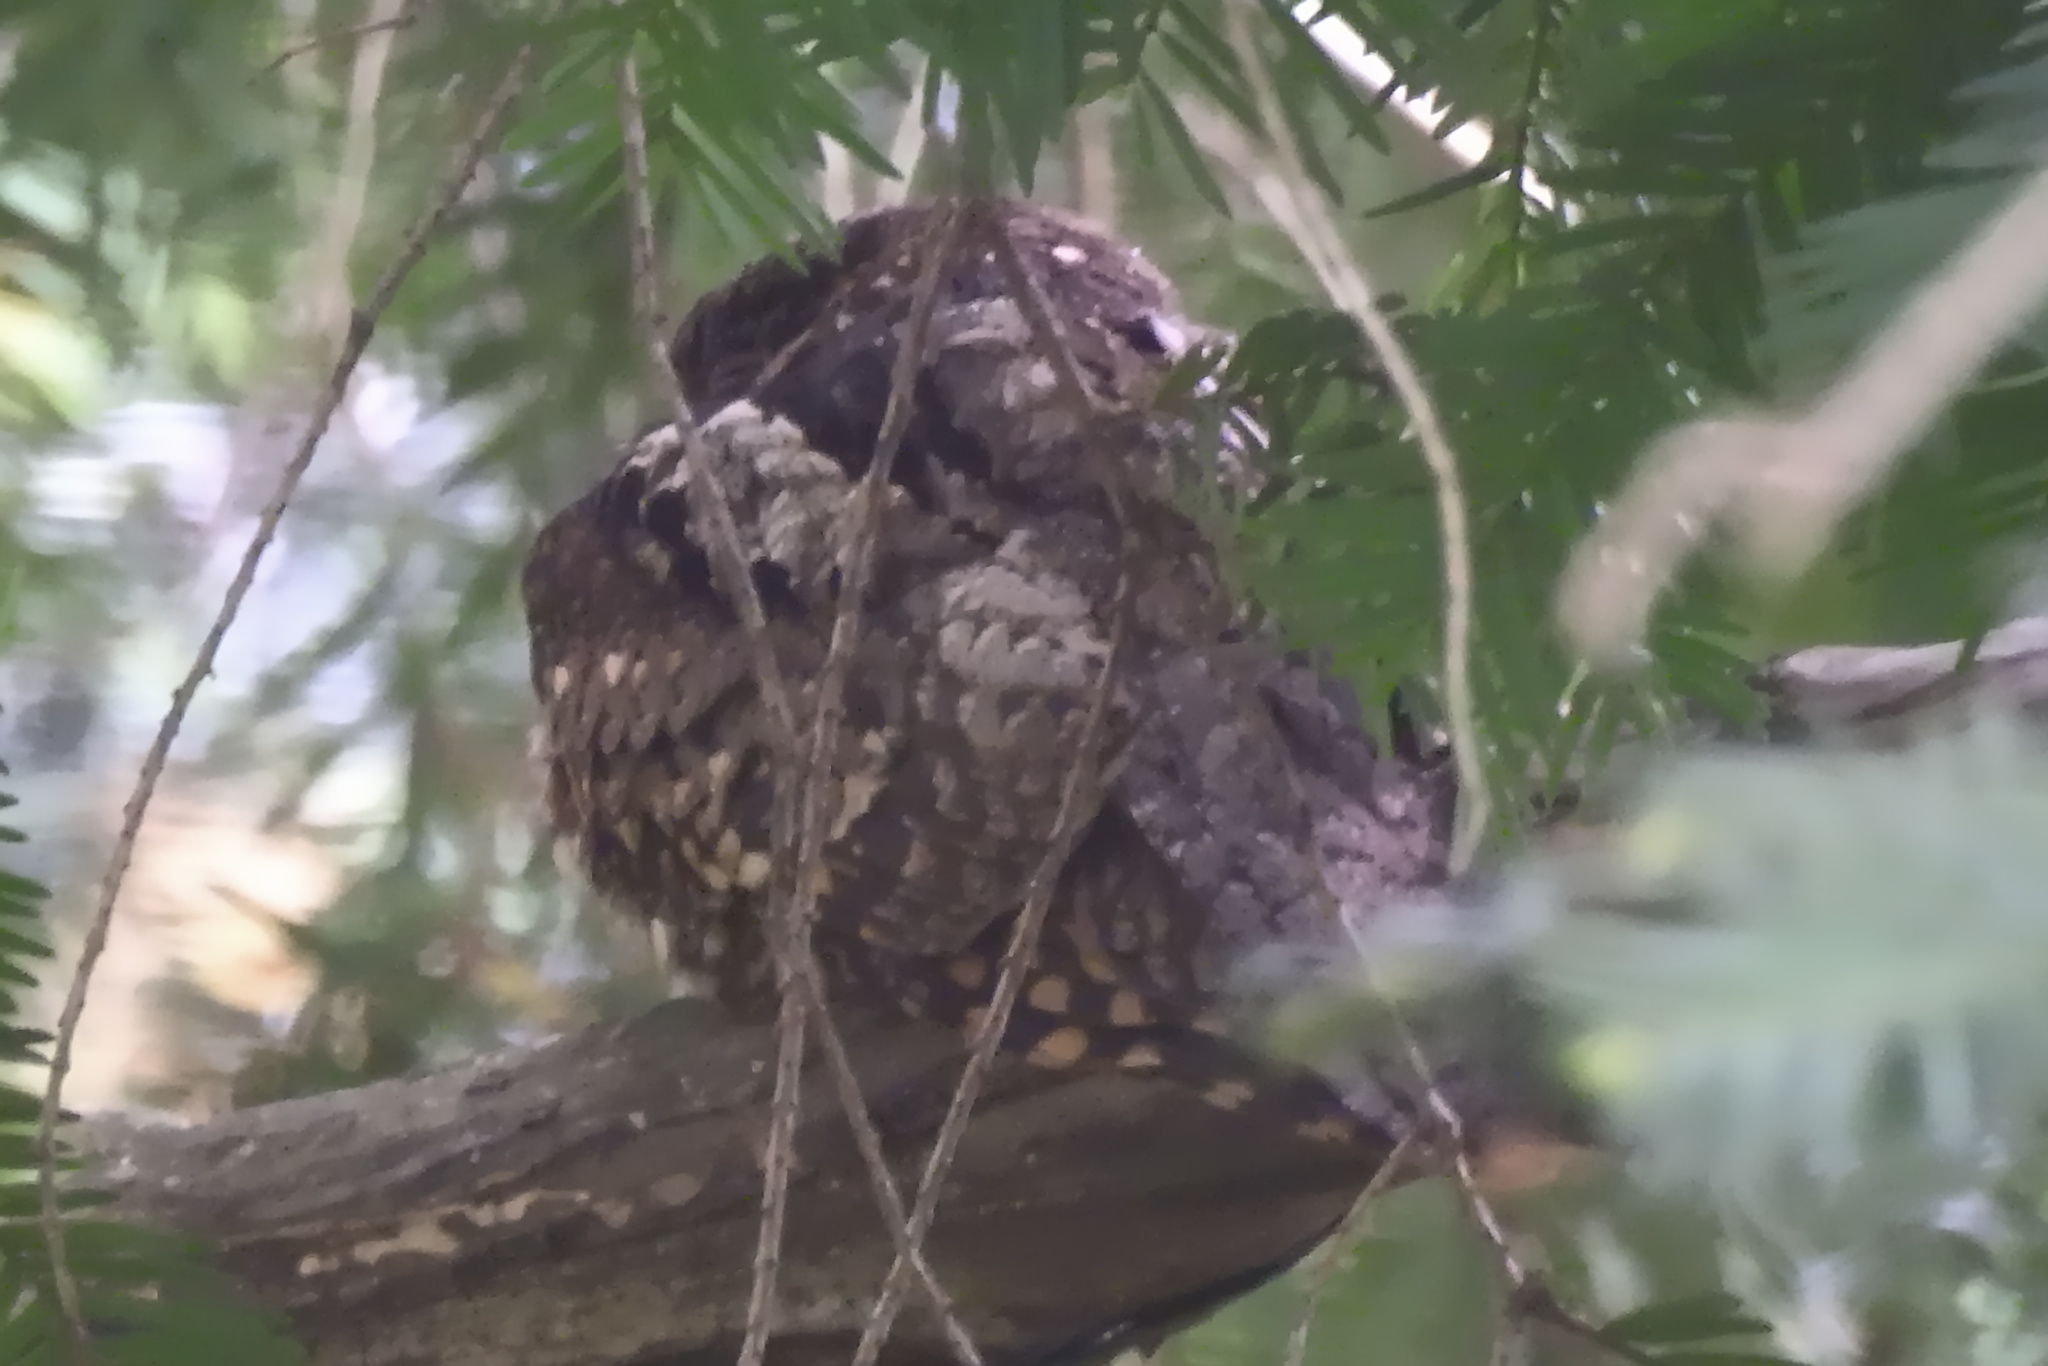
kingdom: Animalia
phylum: Chordata
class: Aves
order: Caprimulgiformes
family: Caprimulgidae
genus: Antrostomus
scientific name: Antrostomus vociferus
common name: Eastern whip-poor-will
